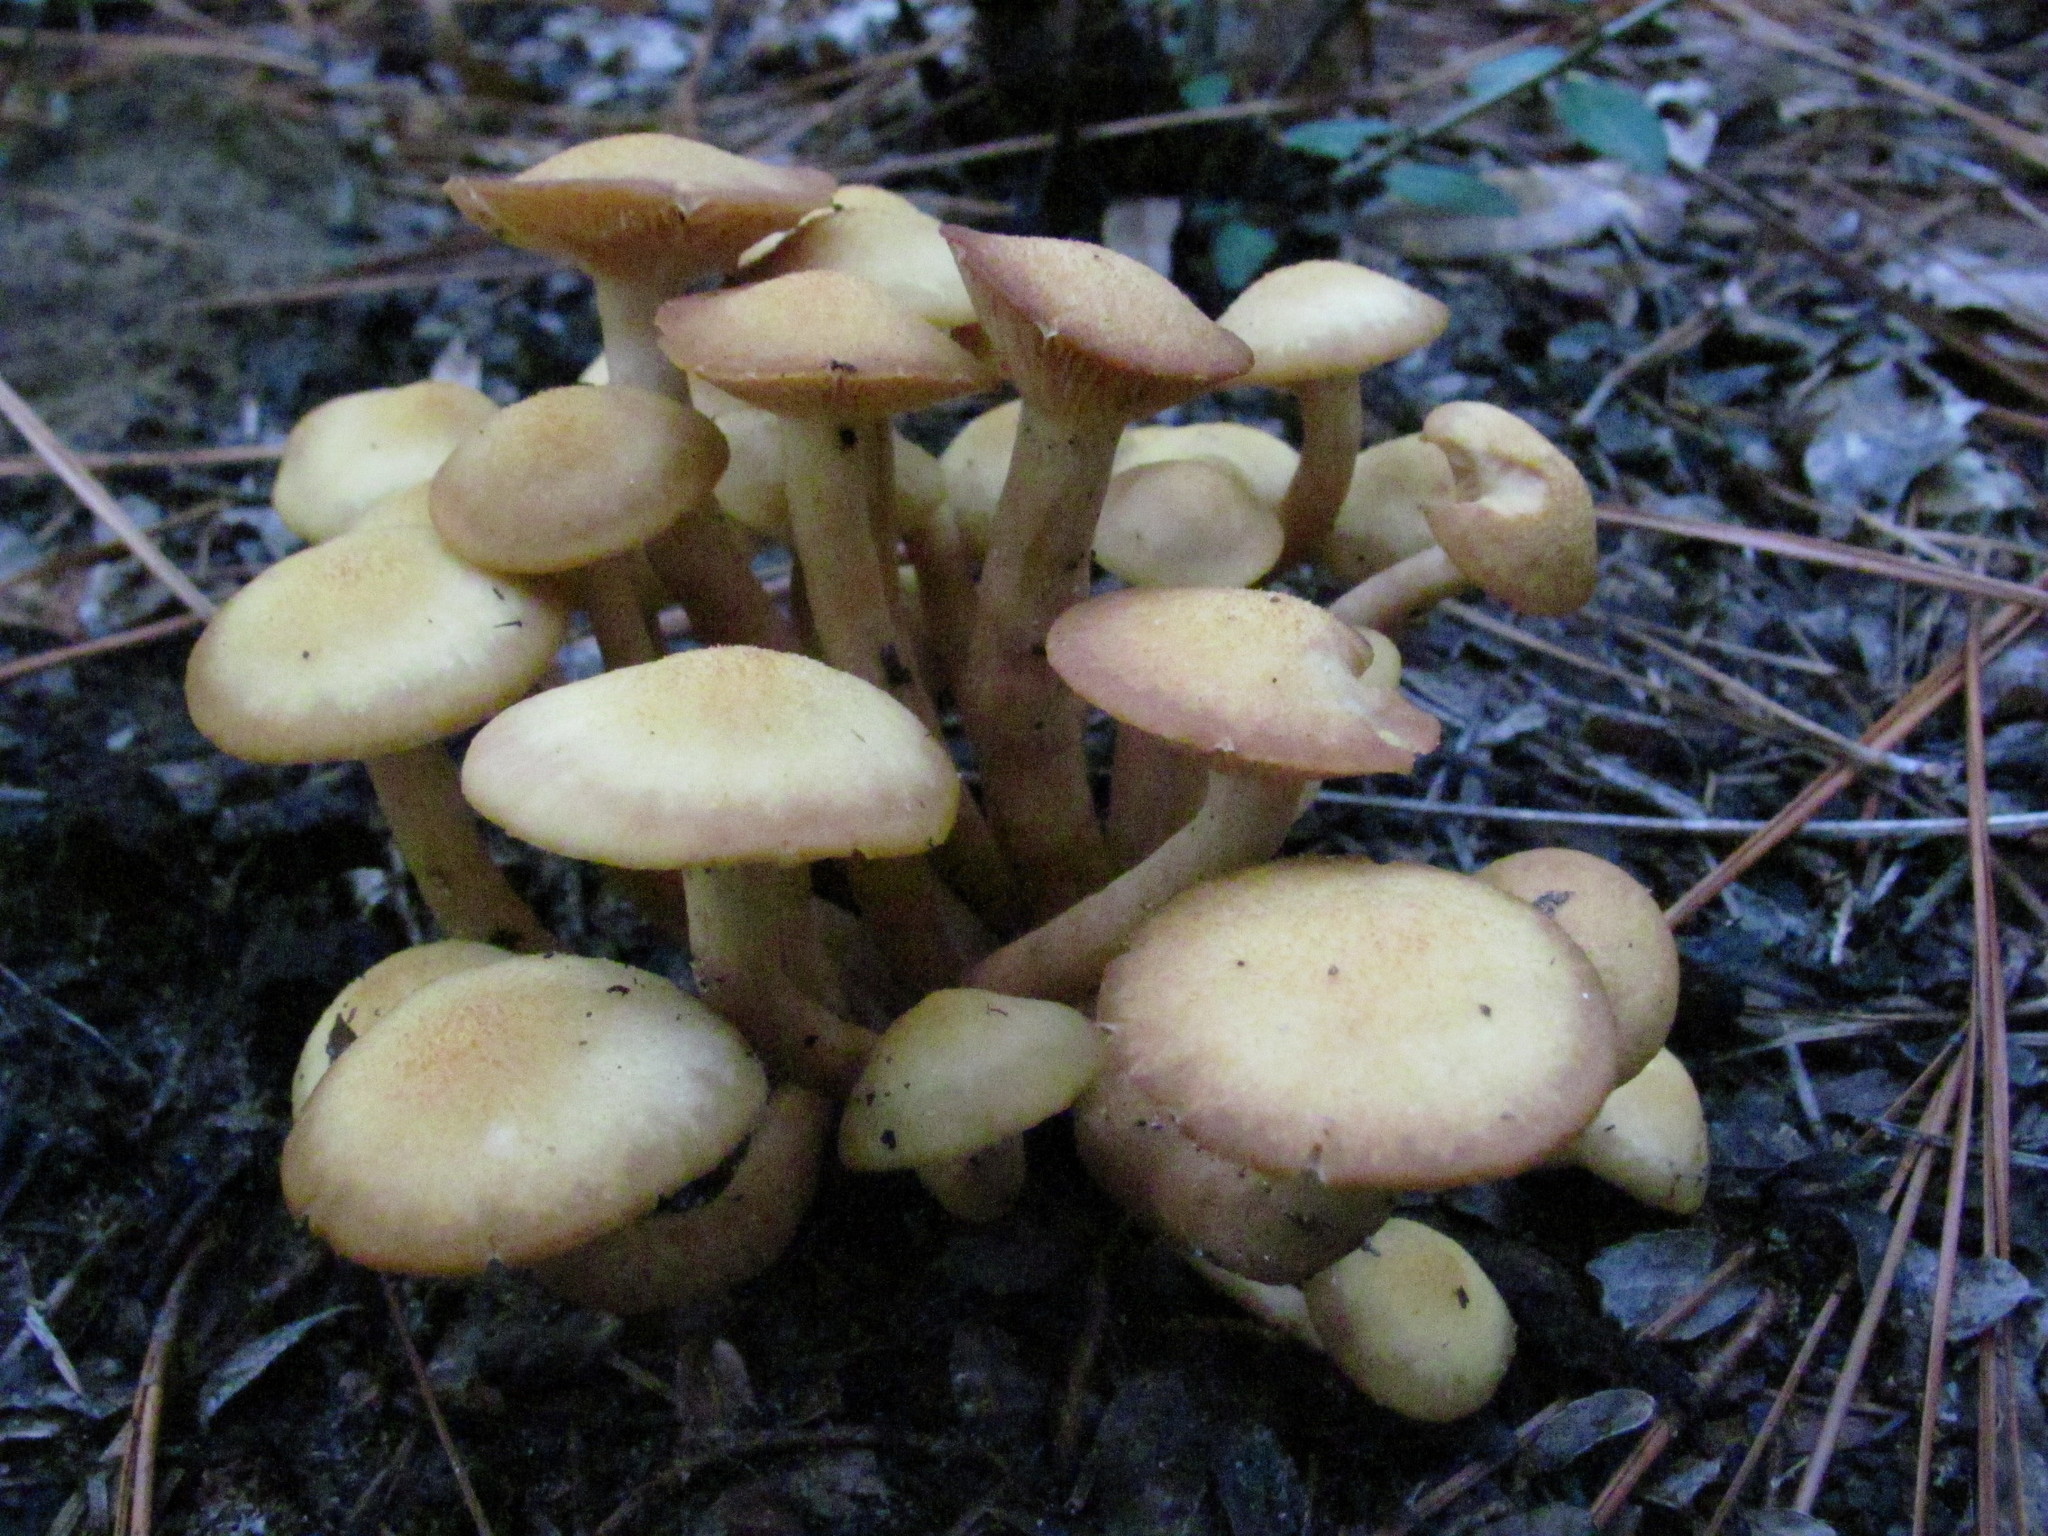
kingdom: Fungi
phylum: Basidiomycota
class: Agaricomycetes
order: Agaricales
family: Physalacriaceae
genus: Desarmillaria
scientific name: Desarmillaria caespitosa
